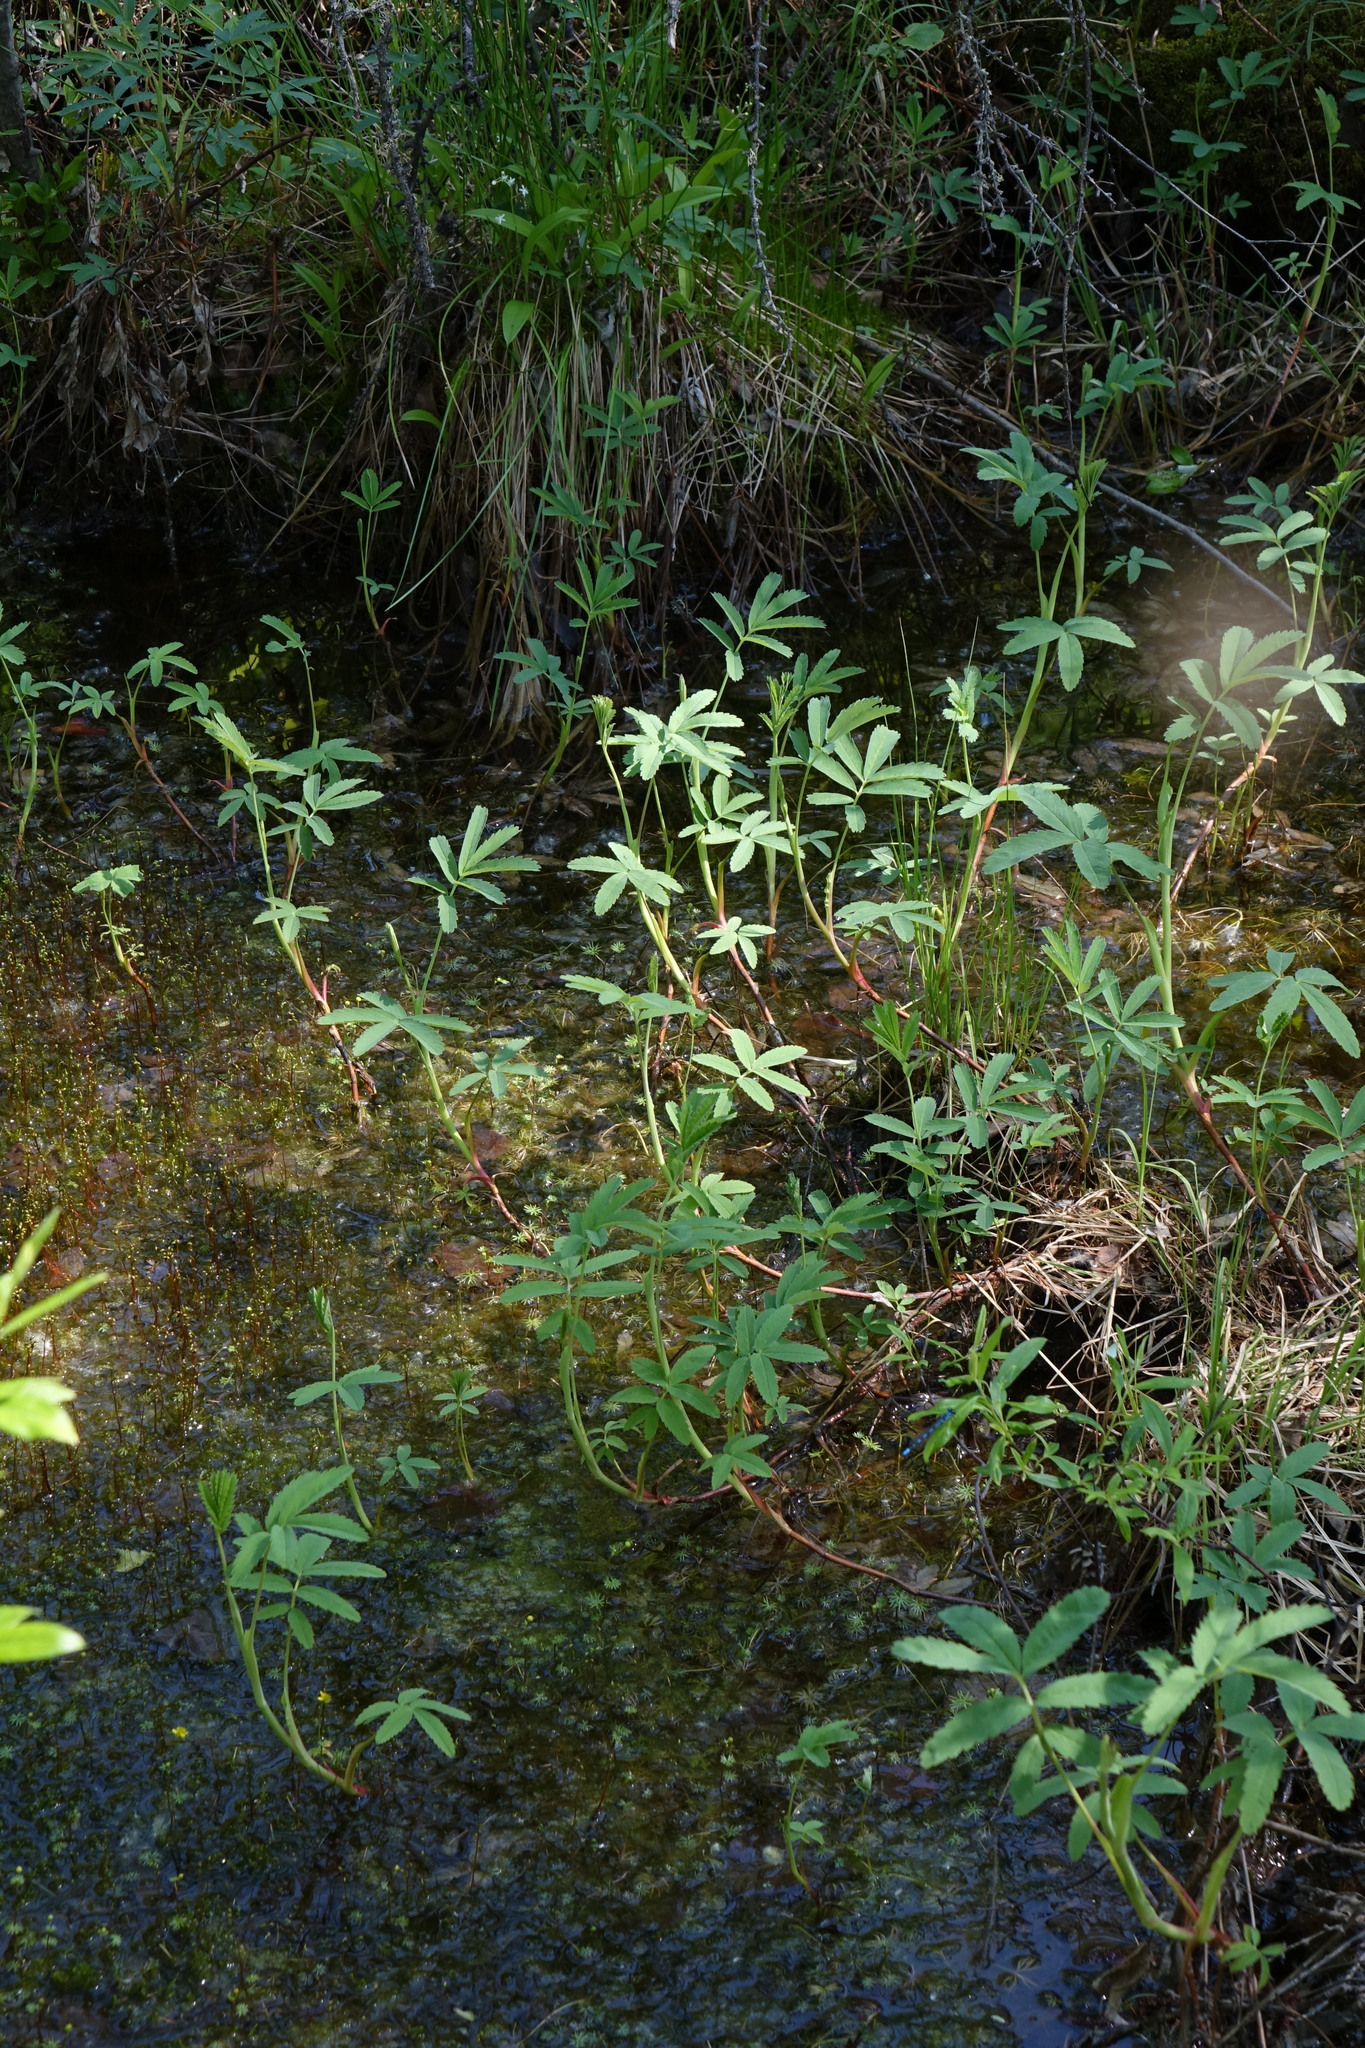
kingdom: Plantae
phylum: Tracheophyta
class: Magnoliopsida
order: Rosales
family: Rosaceae
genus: Comarum
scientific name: Comarum palustre
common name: Marsh cinquefoil
